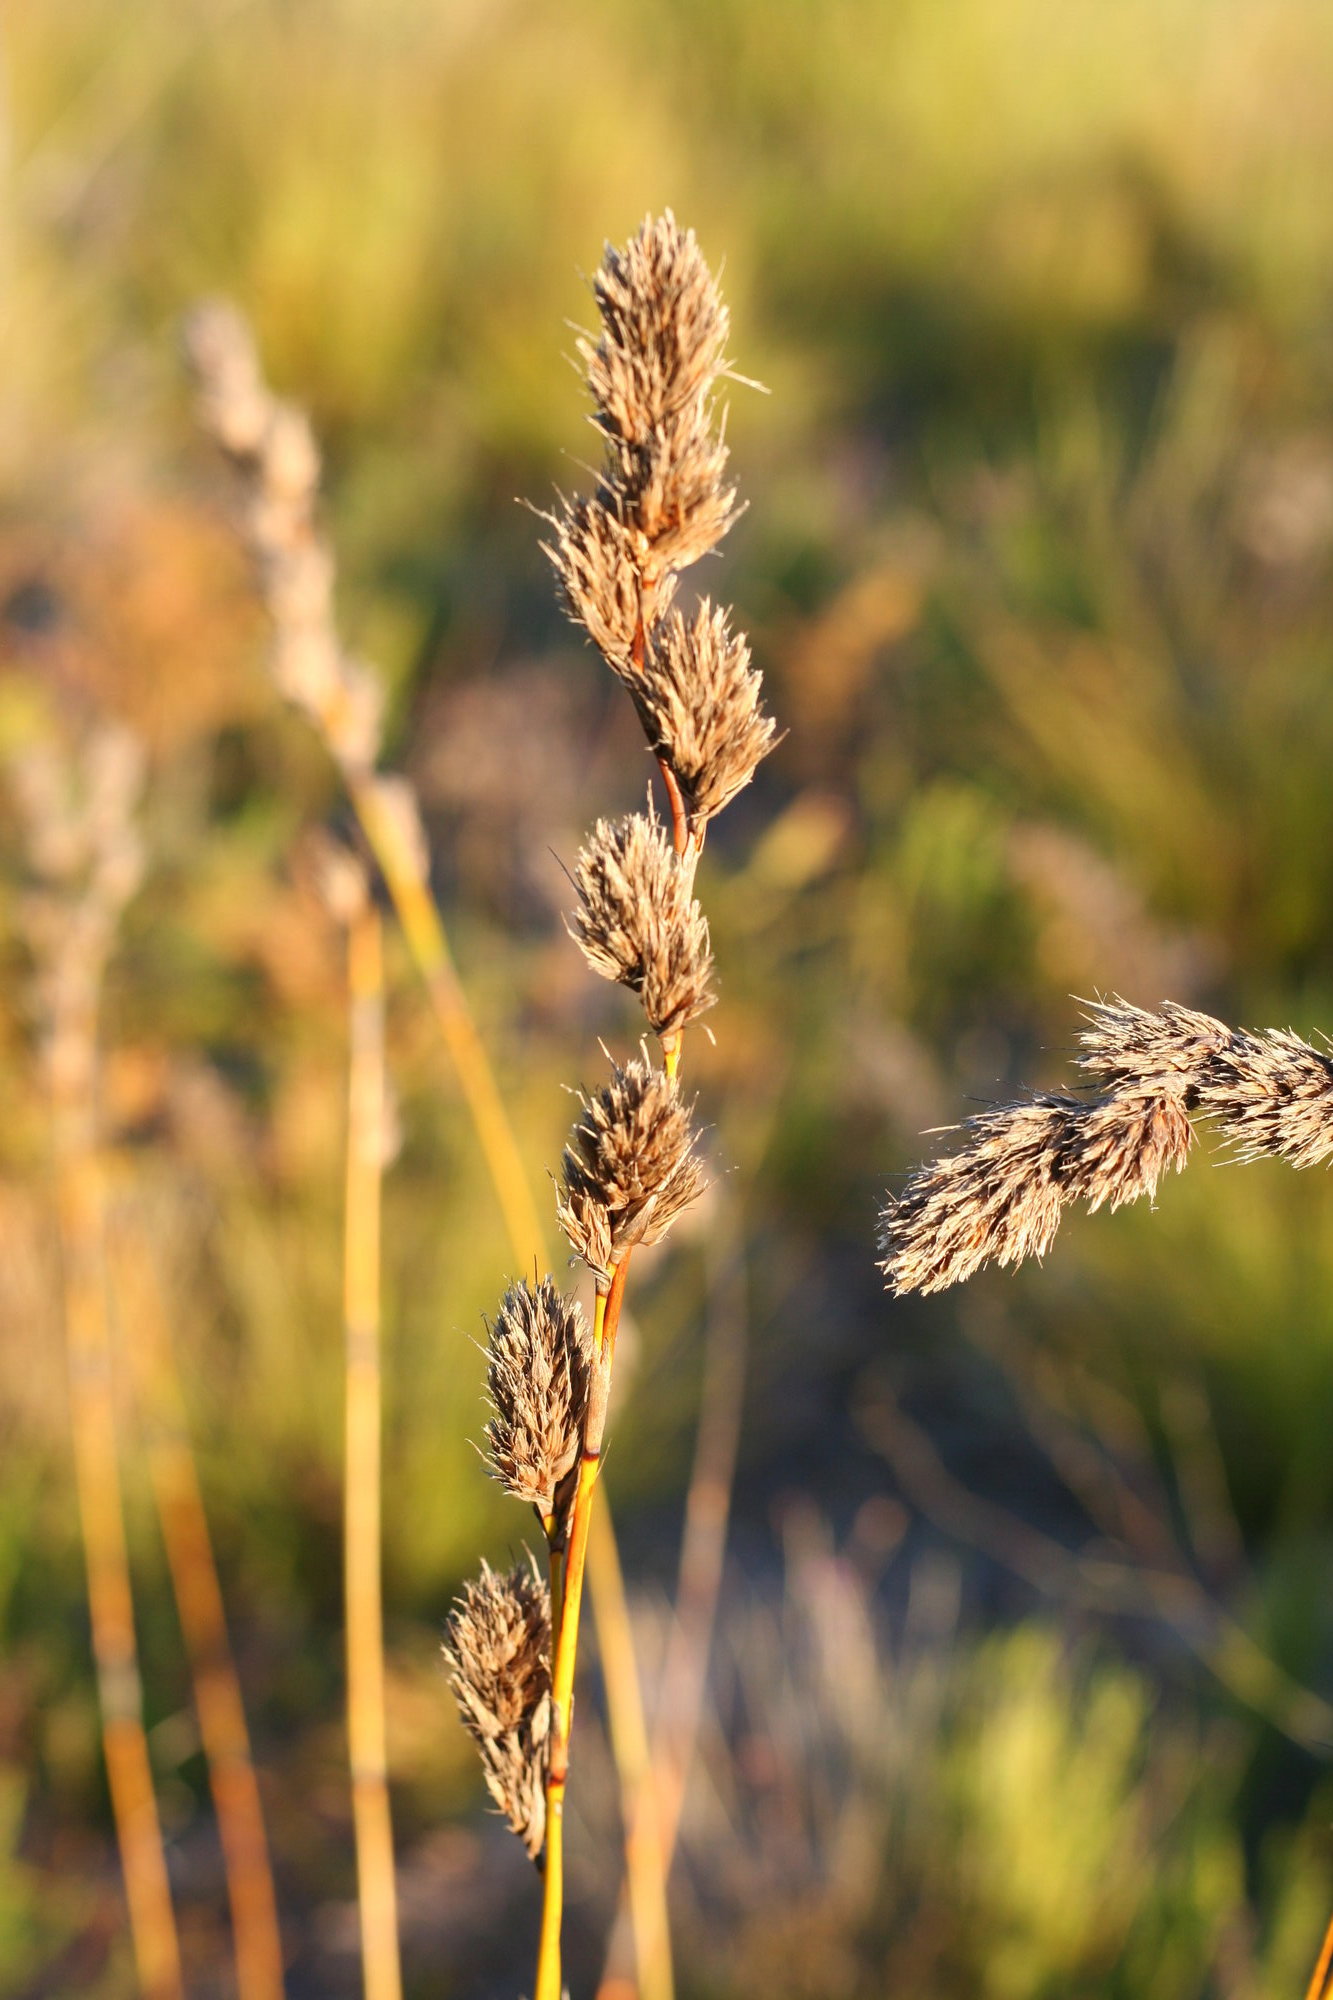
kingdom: Plantae
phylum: Tracheophyta
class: Liliopsida
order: Poales
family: Cyperaceae
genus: Tetraria
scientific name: Tetraria bromoides
